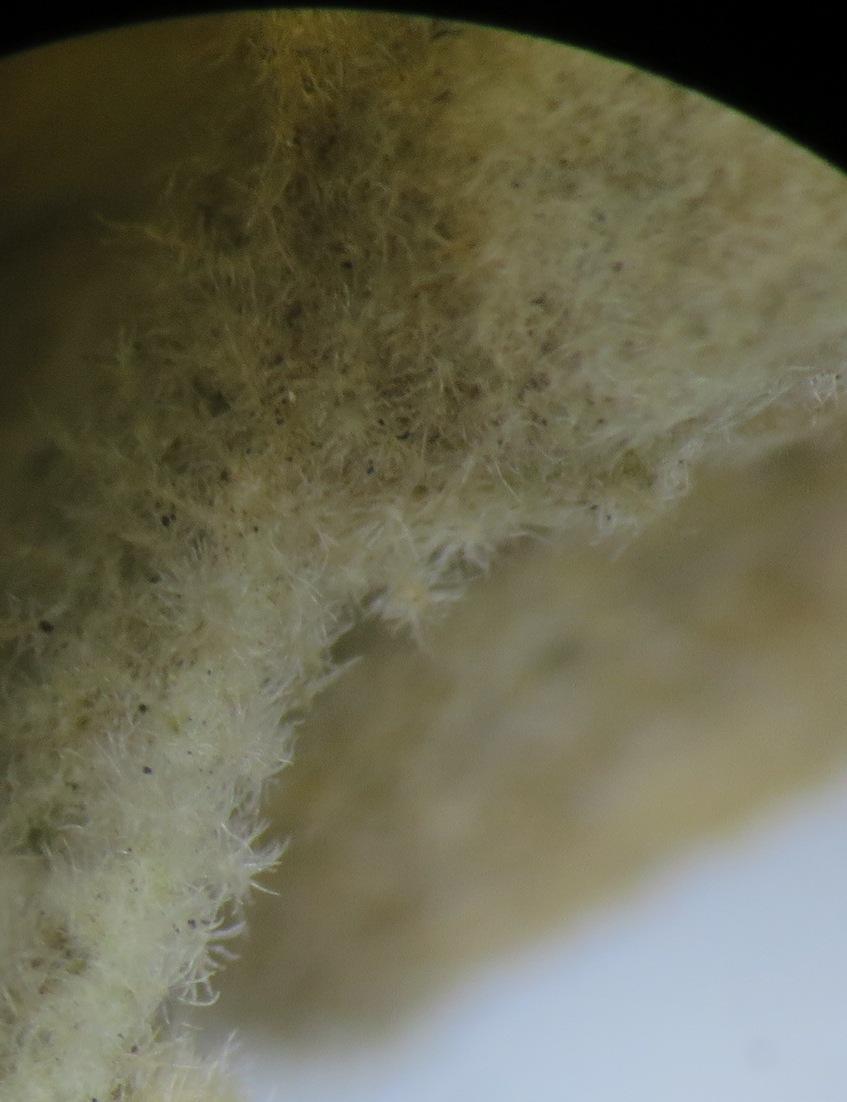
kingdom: Plantae
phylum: Tracheophyta
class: Magnoliopsida
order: Lamiales
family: Stilbaceae
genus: Anastrabe
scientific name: Anastrabe integerrima
